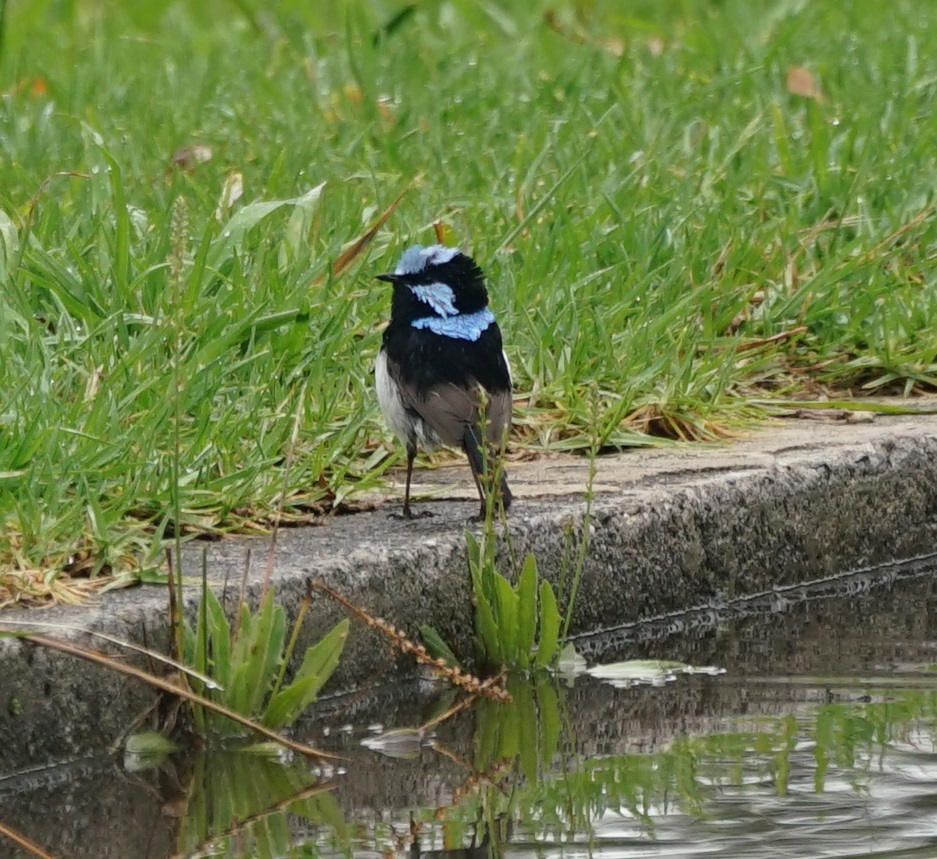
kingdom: Animalia
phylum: Chordata
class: Aves
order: Passeriformes
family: Maluridae
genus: Malurus
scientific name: Malurus cyaneus
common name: Superb fairywren
